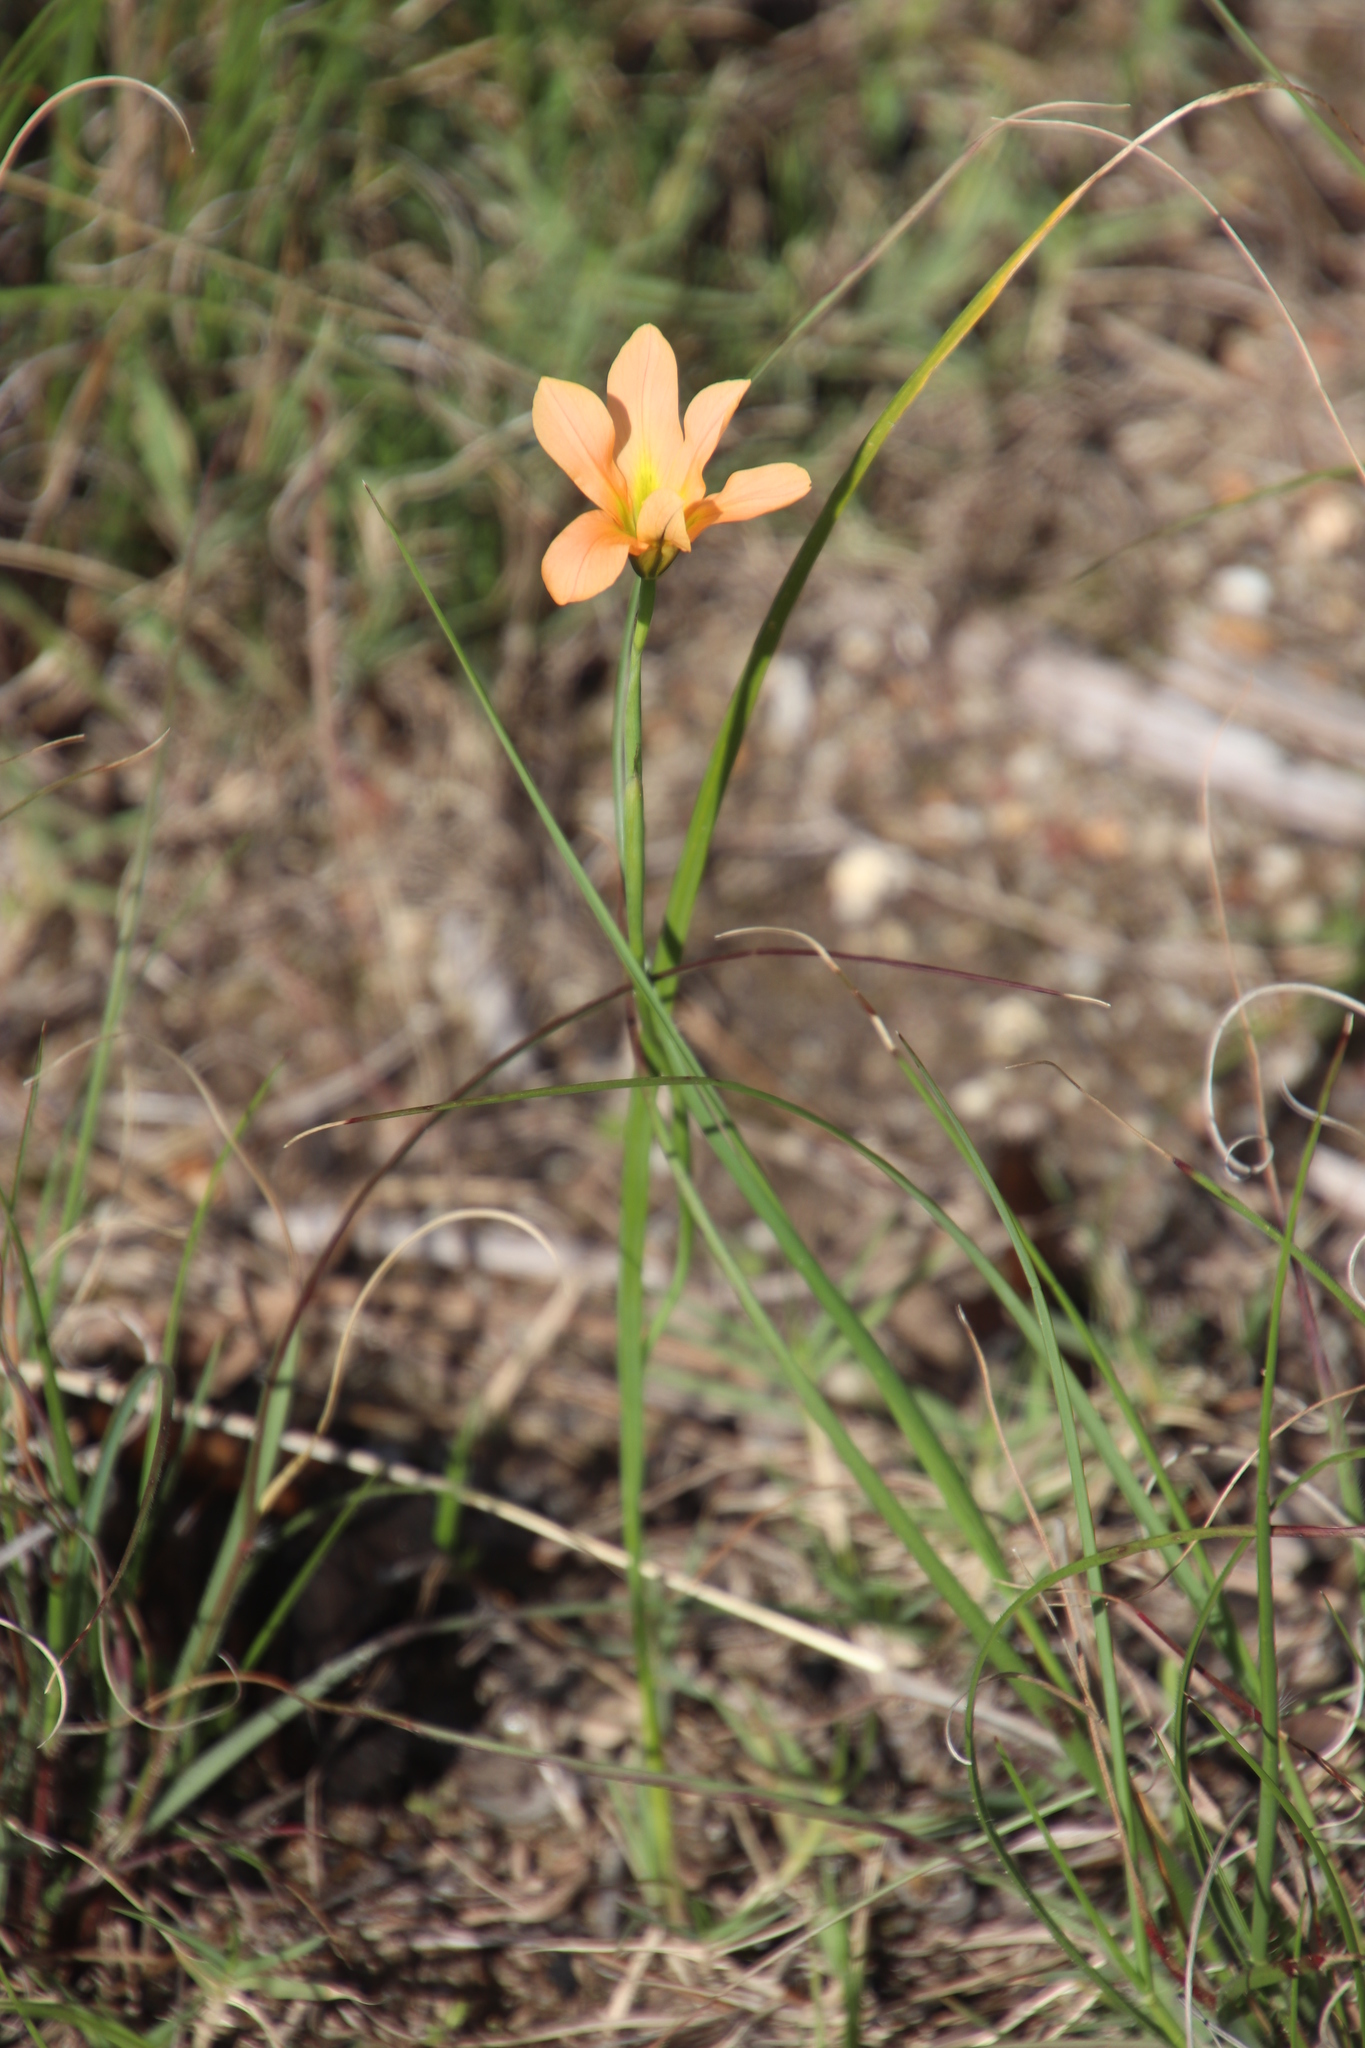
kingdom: Plantae
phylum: Tracheophyta
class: Liliopsida
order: Asparagales
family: Iridaceae
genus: Moraea
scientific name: Moraea flaccida
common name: One-leaf cape-tulip
